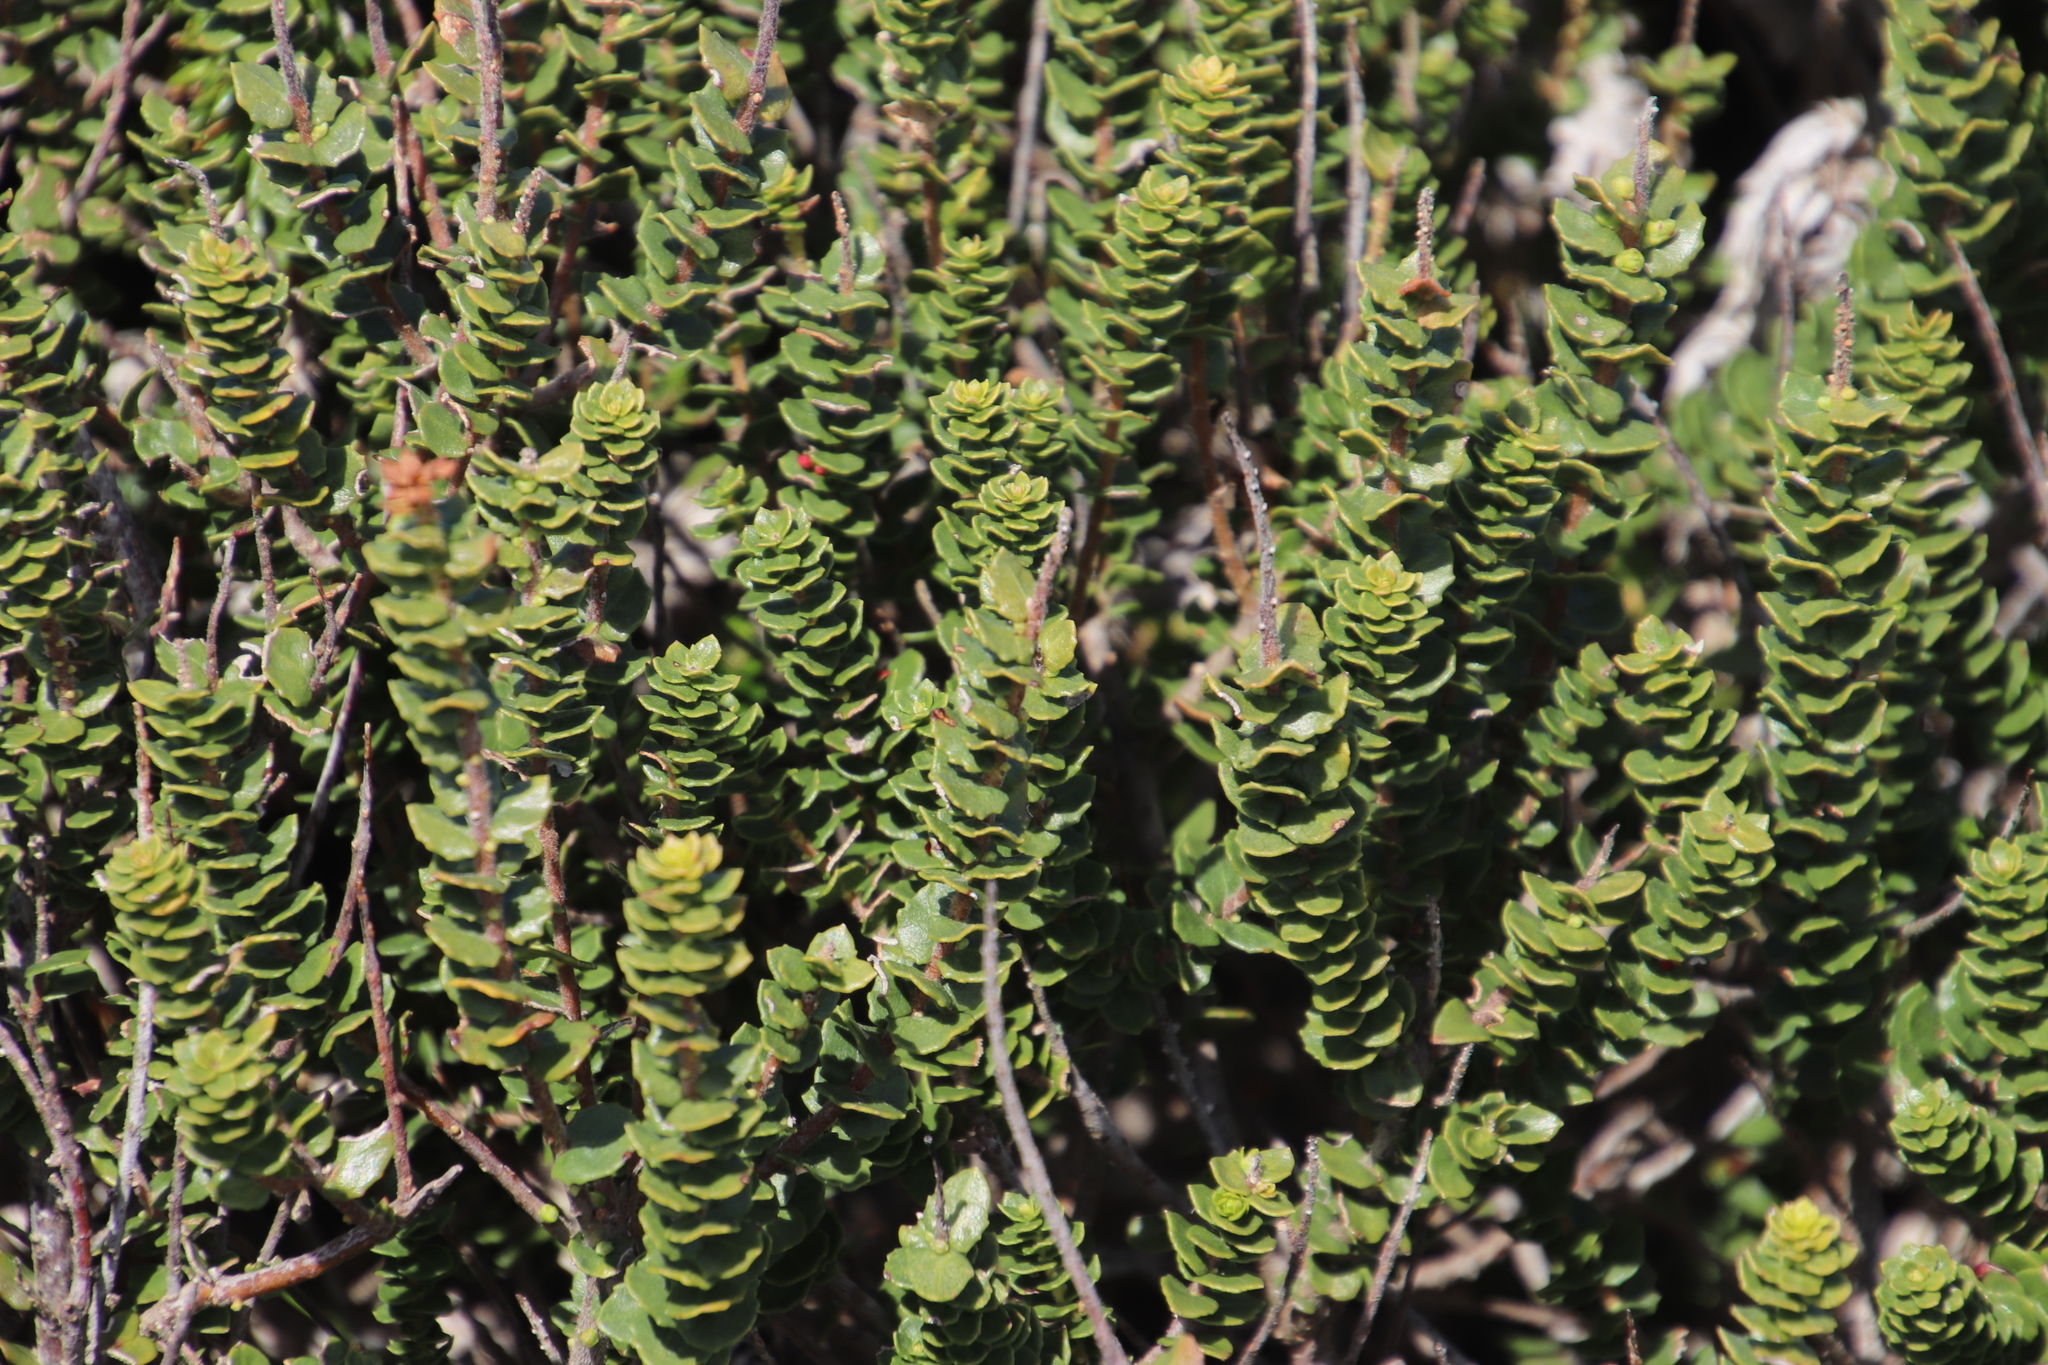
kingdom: Plantae
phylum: Tracheophyta
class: Magnoliopsida
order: Fagales
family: Myricaceae
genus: Morella
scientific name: Morella cordifolia
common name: Waxberry
